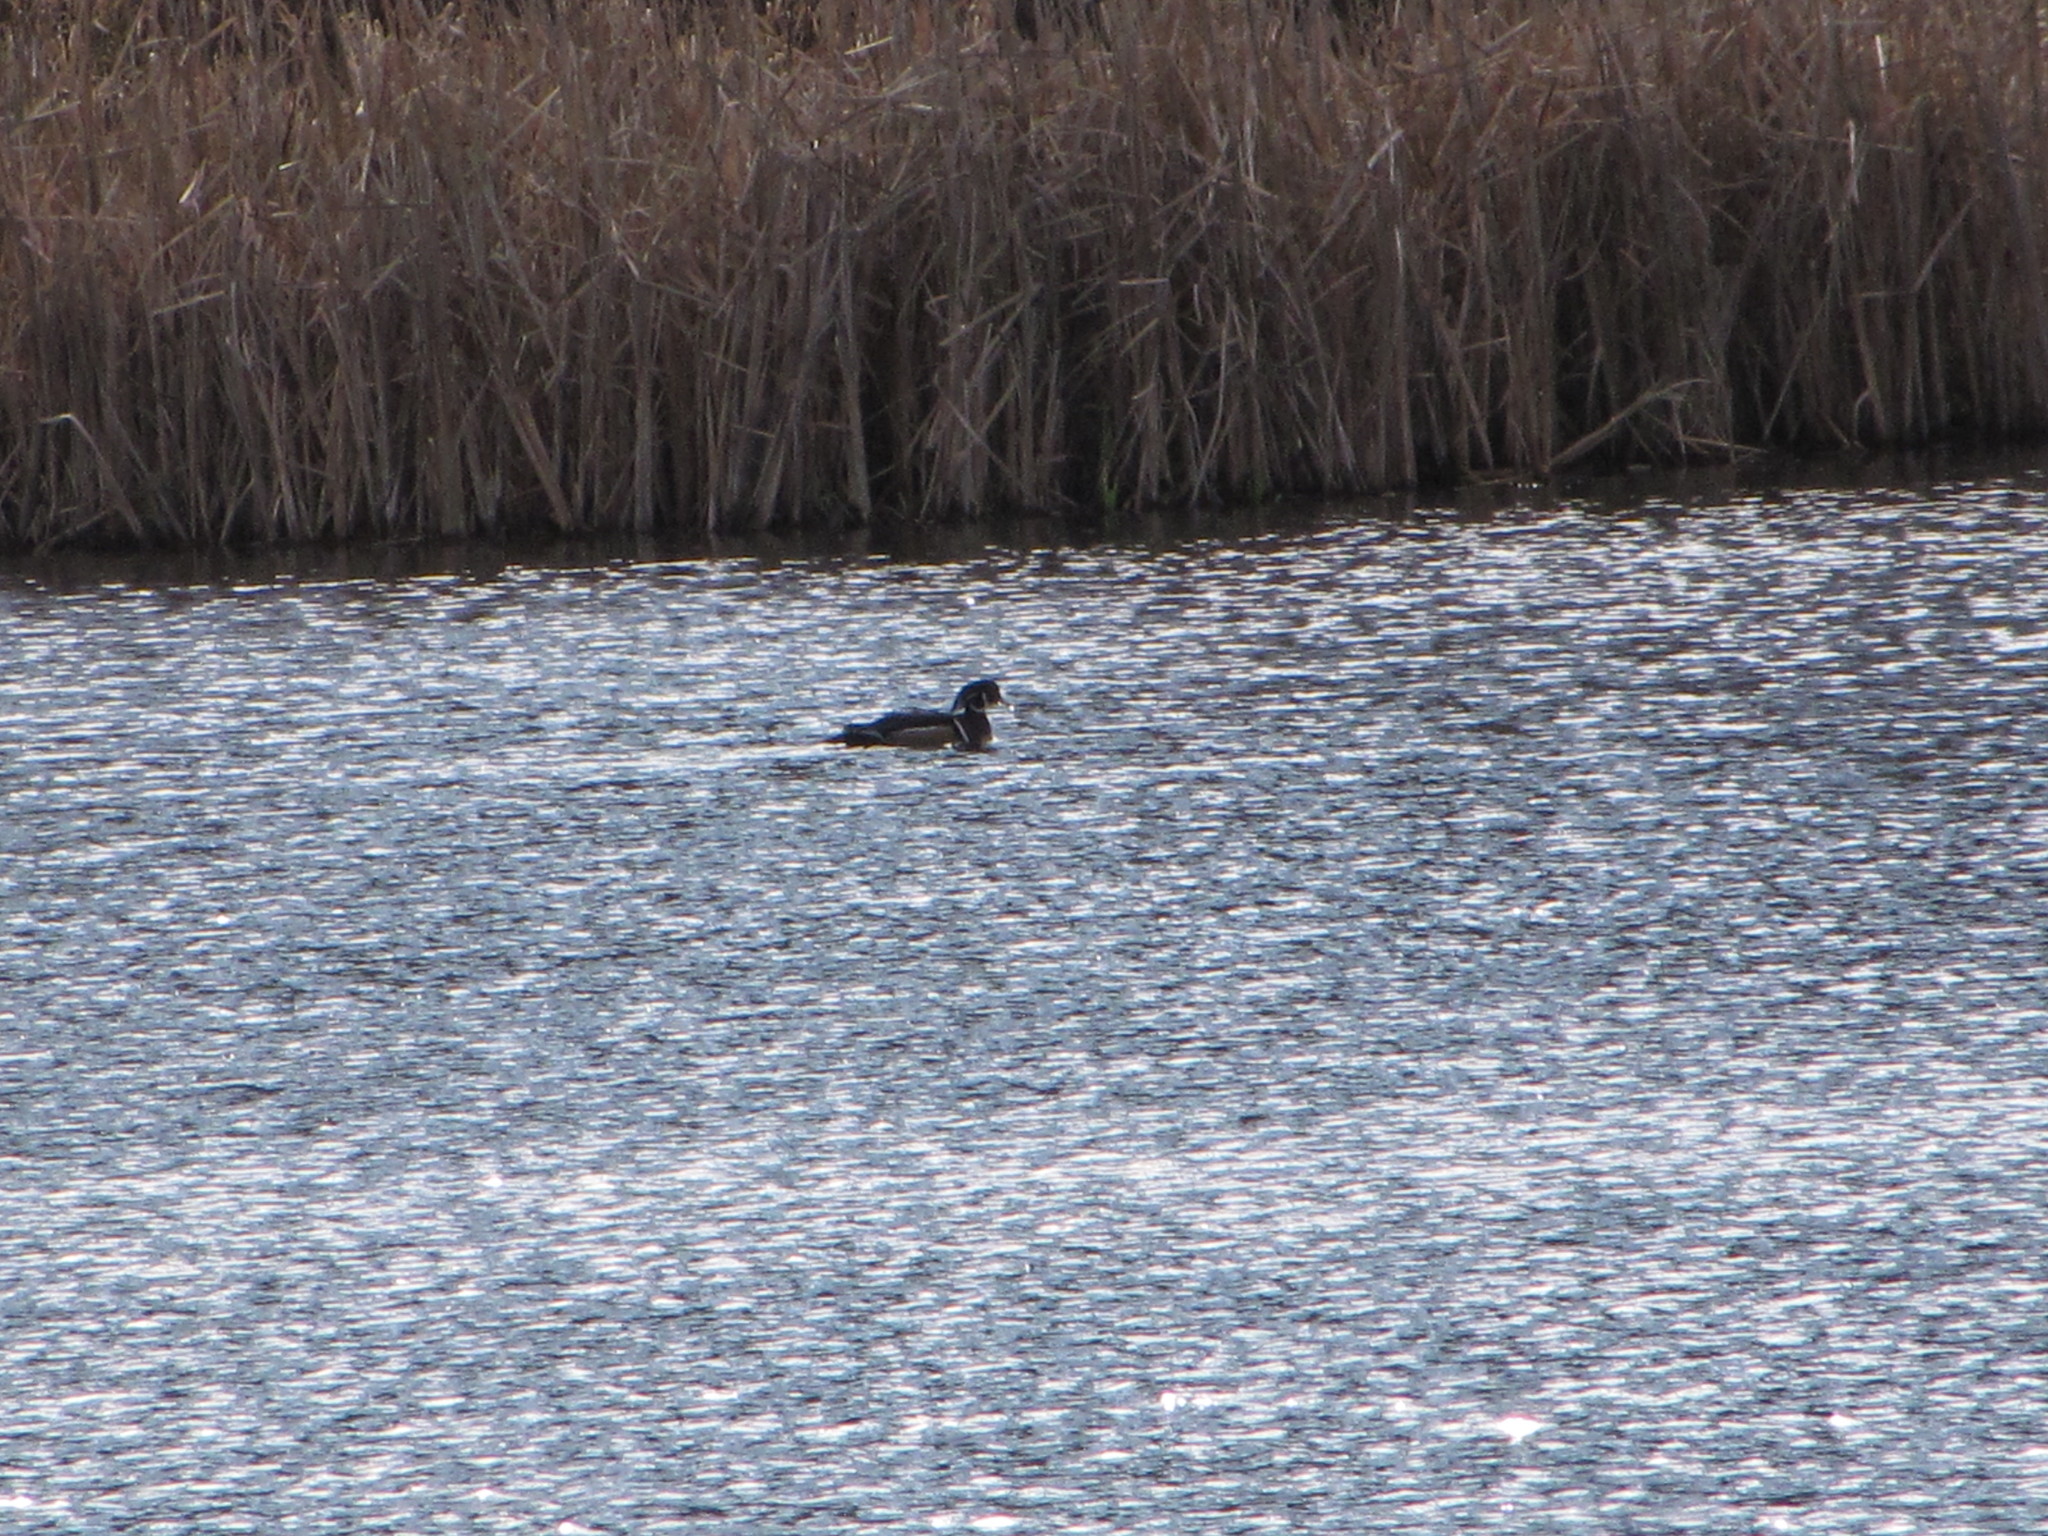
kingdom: Animalia
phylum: Chordata
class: Aves
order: Anseriformes
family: Anatidae
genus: Aix
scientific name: Aix sponsa
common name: Wood duck
